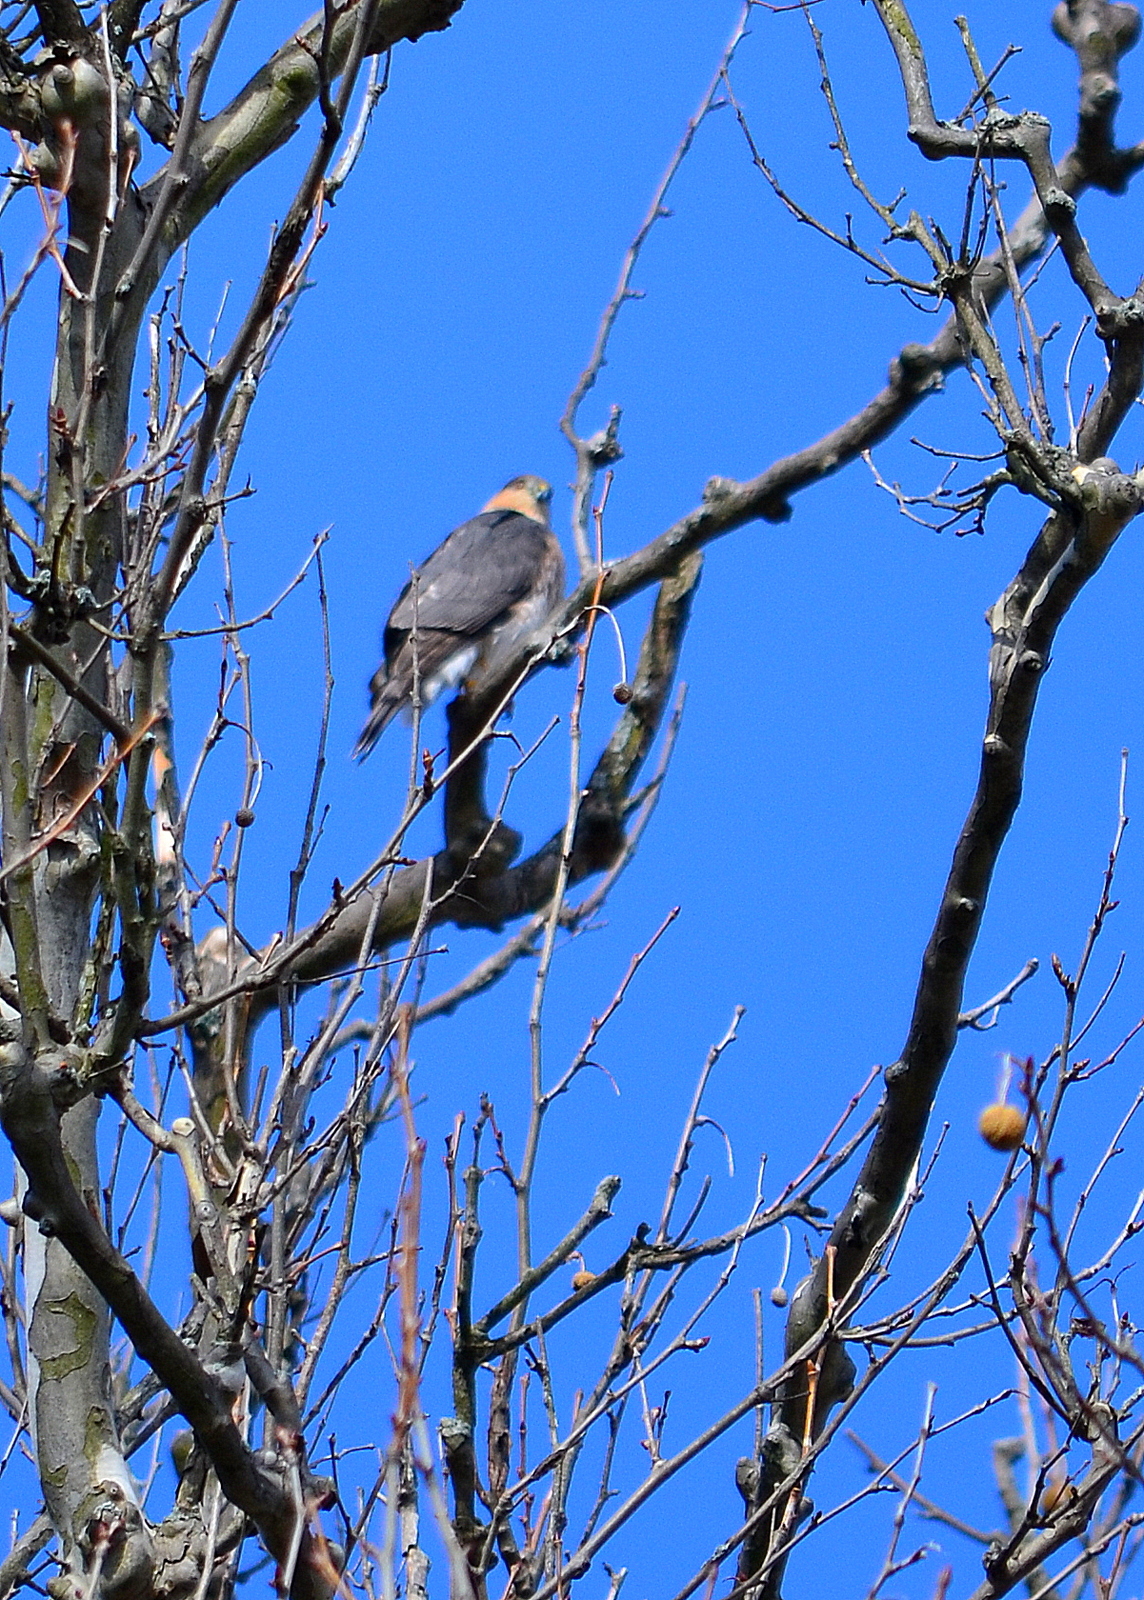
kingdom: Animalia
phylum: Chordata
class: Aves
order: Accipitriformes
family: Accipitridae
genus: Accipiter
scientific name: Accipiter cooperii
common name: Cooper's hawk
